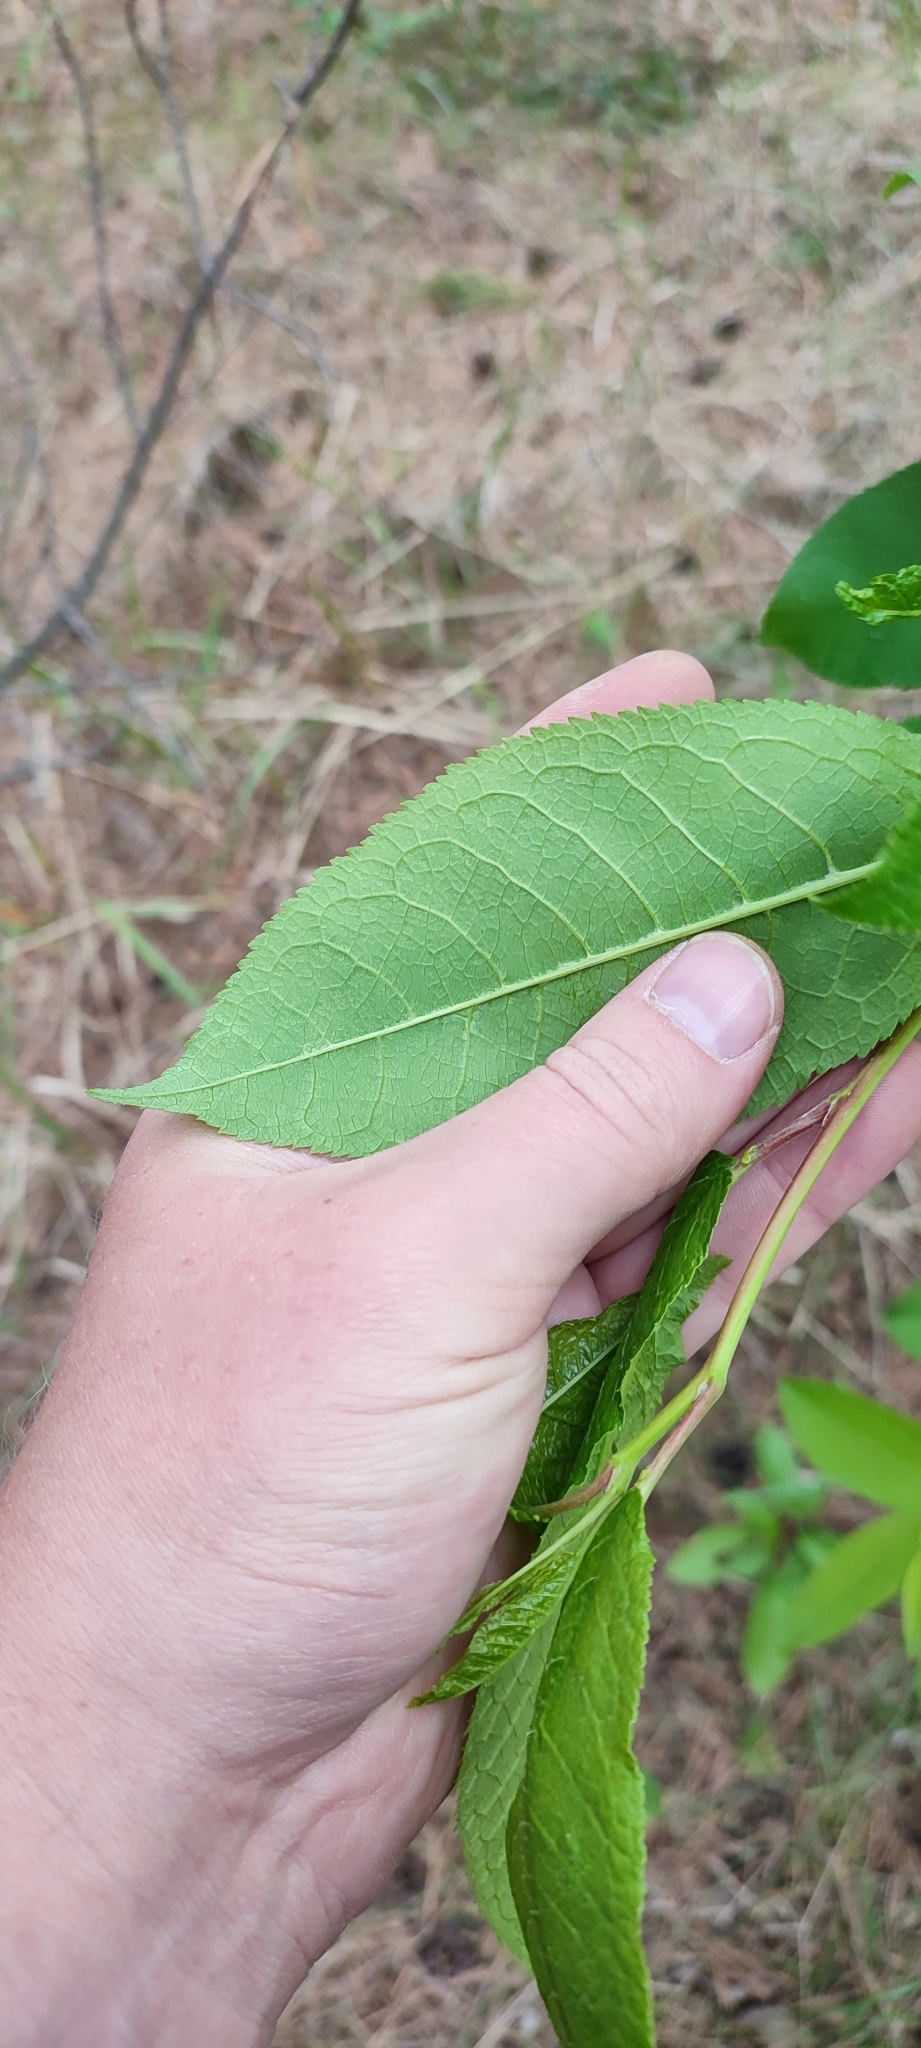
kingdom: Plantae
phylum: Tracheophyta
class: Magnoliopsida
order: Rosales
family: Rosaceae
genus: Prunus
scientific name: Prunus padus
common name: Bird cherry
